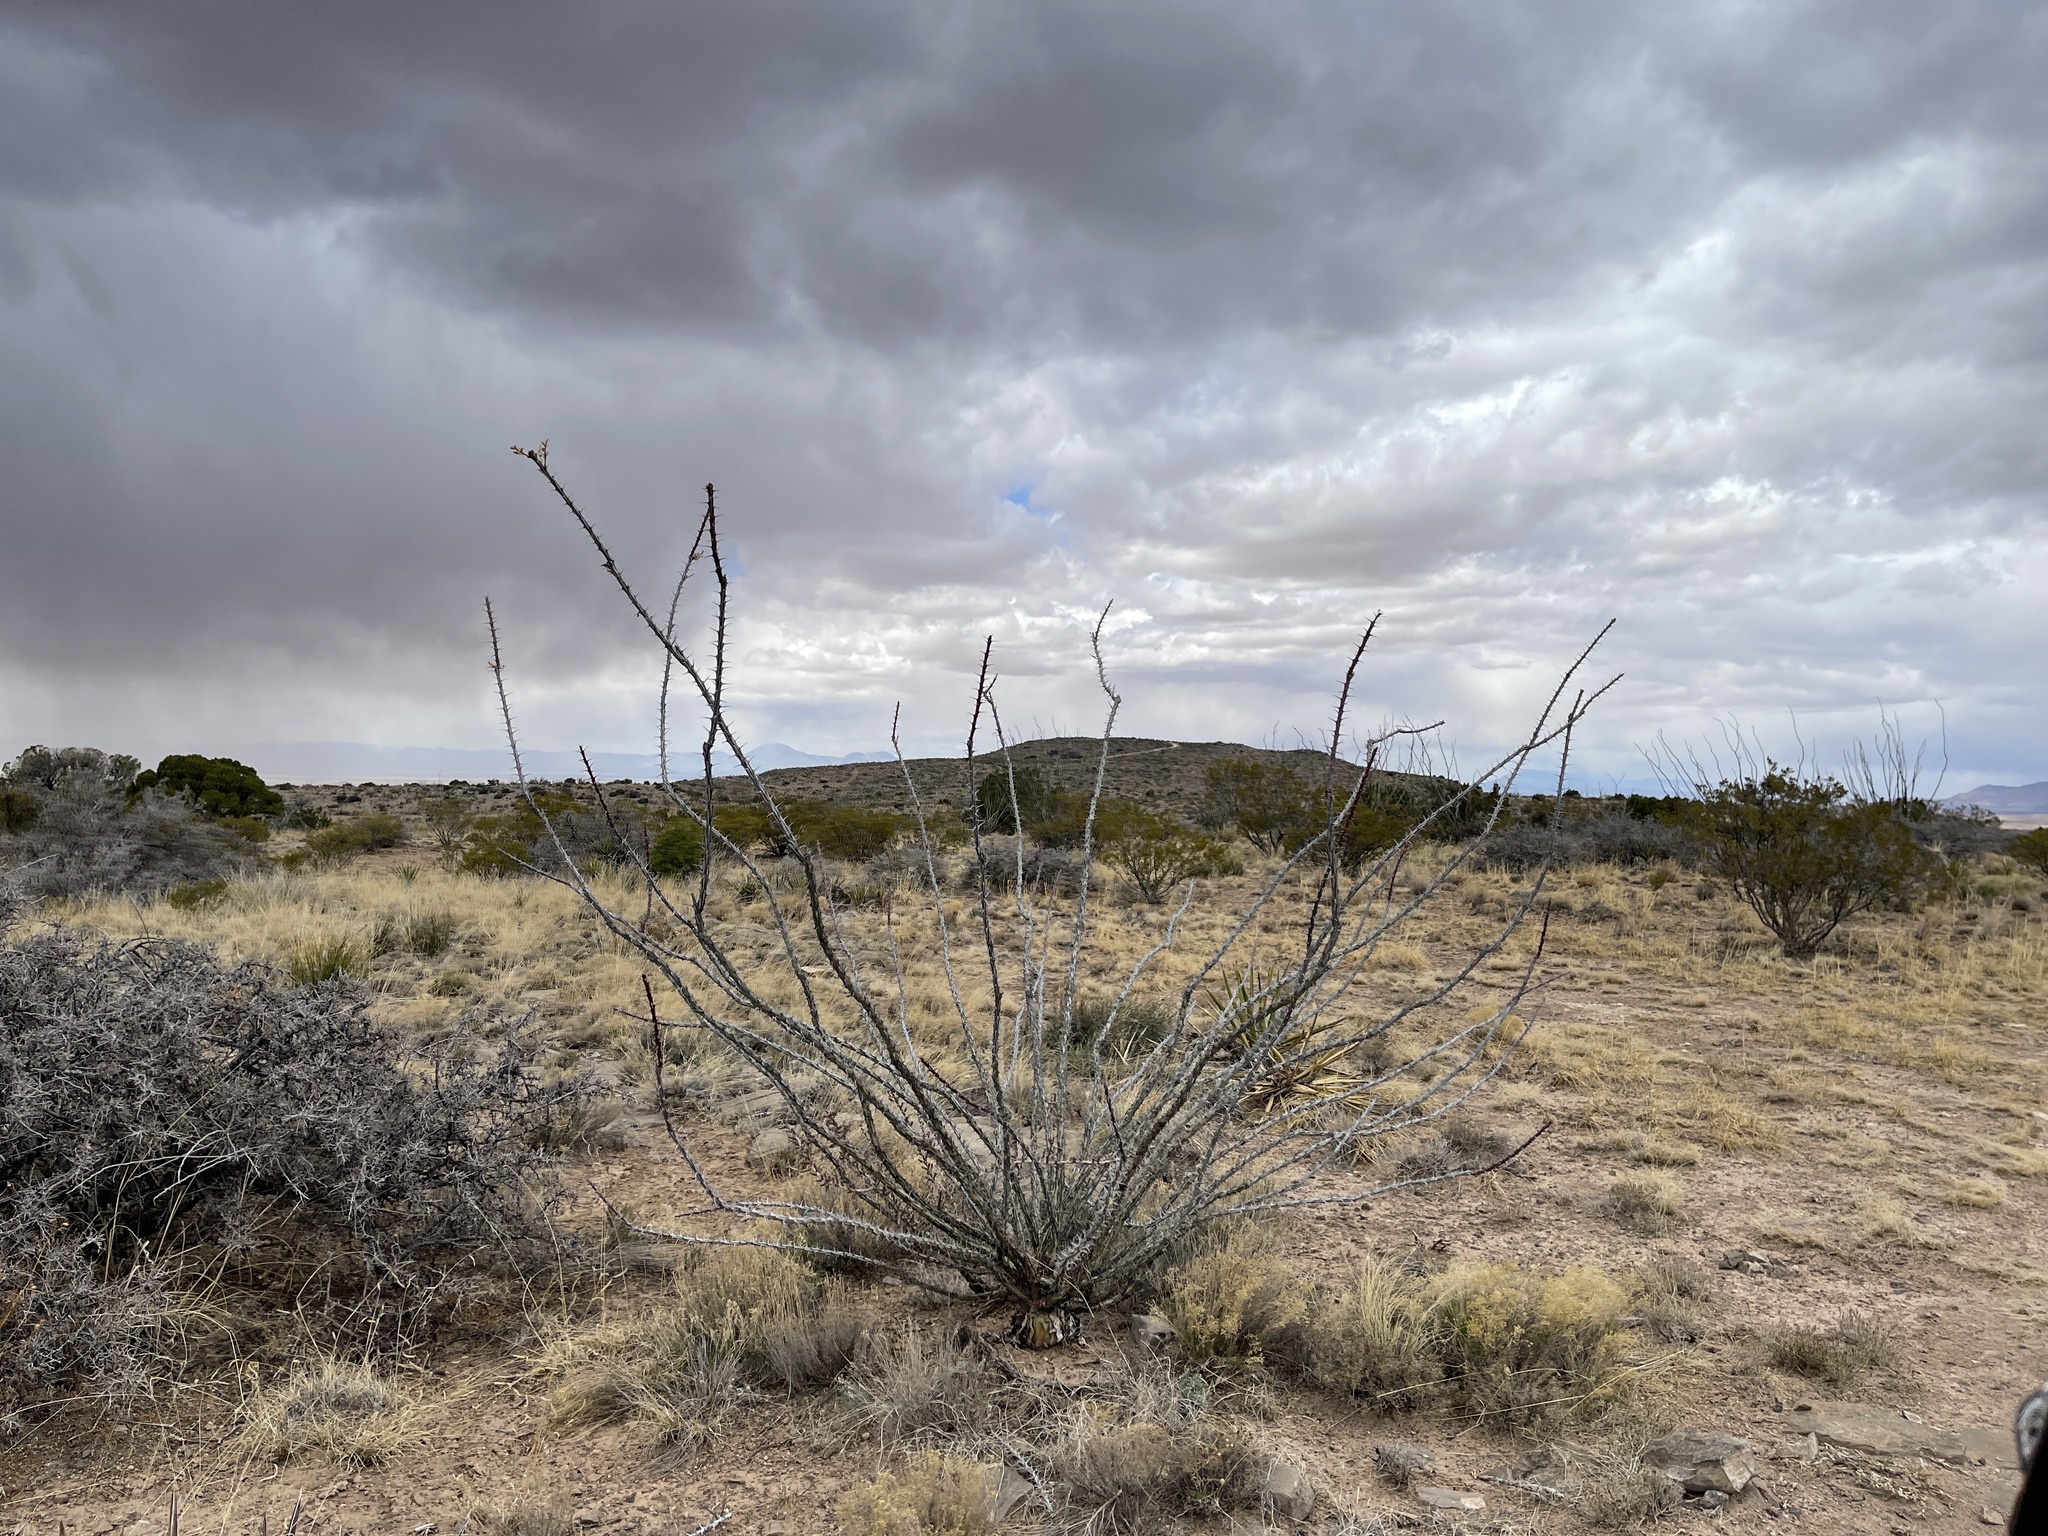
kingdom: Plantae
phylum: Tracheophyta
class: Magnoliopsida
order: Ericales
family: Fouquieriaceae
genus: Fouquieria
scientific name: Fouquieria splendens
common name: Vine-cactus
